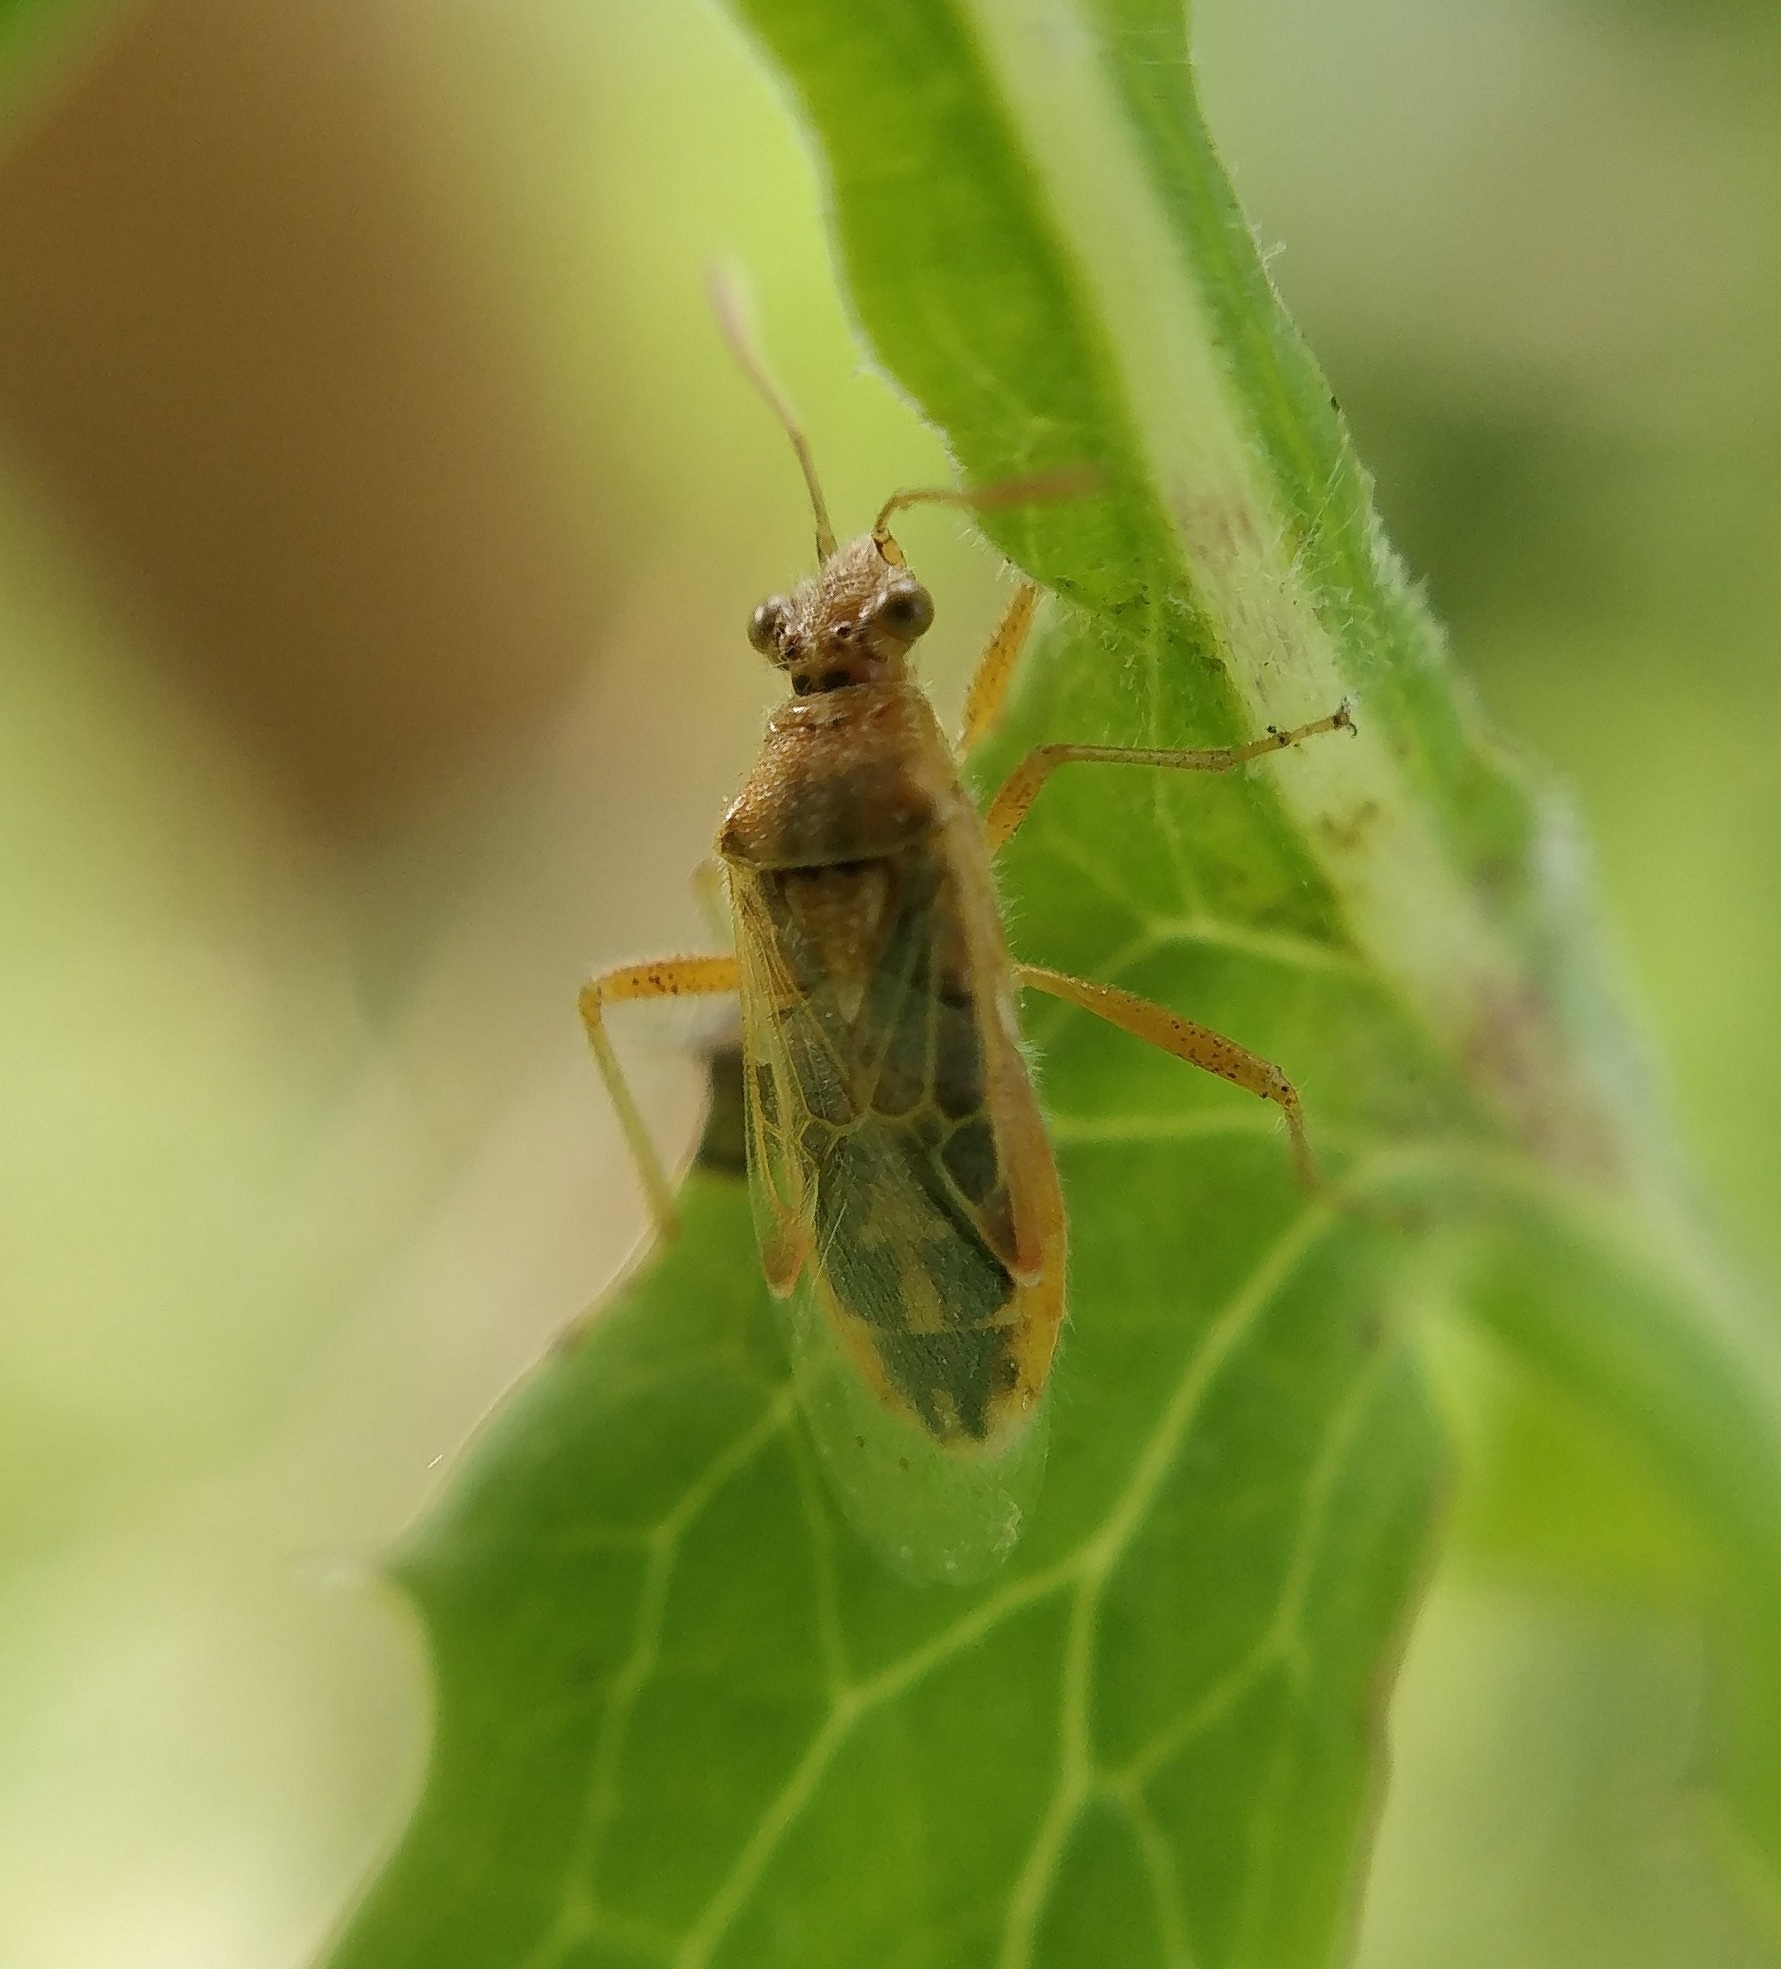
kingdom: Animalia
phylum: Arthropoda
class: Insecta
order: Hemiptera
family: Rhopalidae
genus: Liorhyssus
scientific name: Liorhyssus hyalinus
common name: Scentless plant bug
